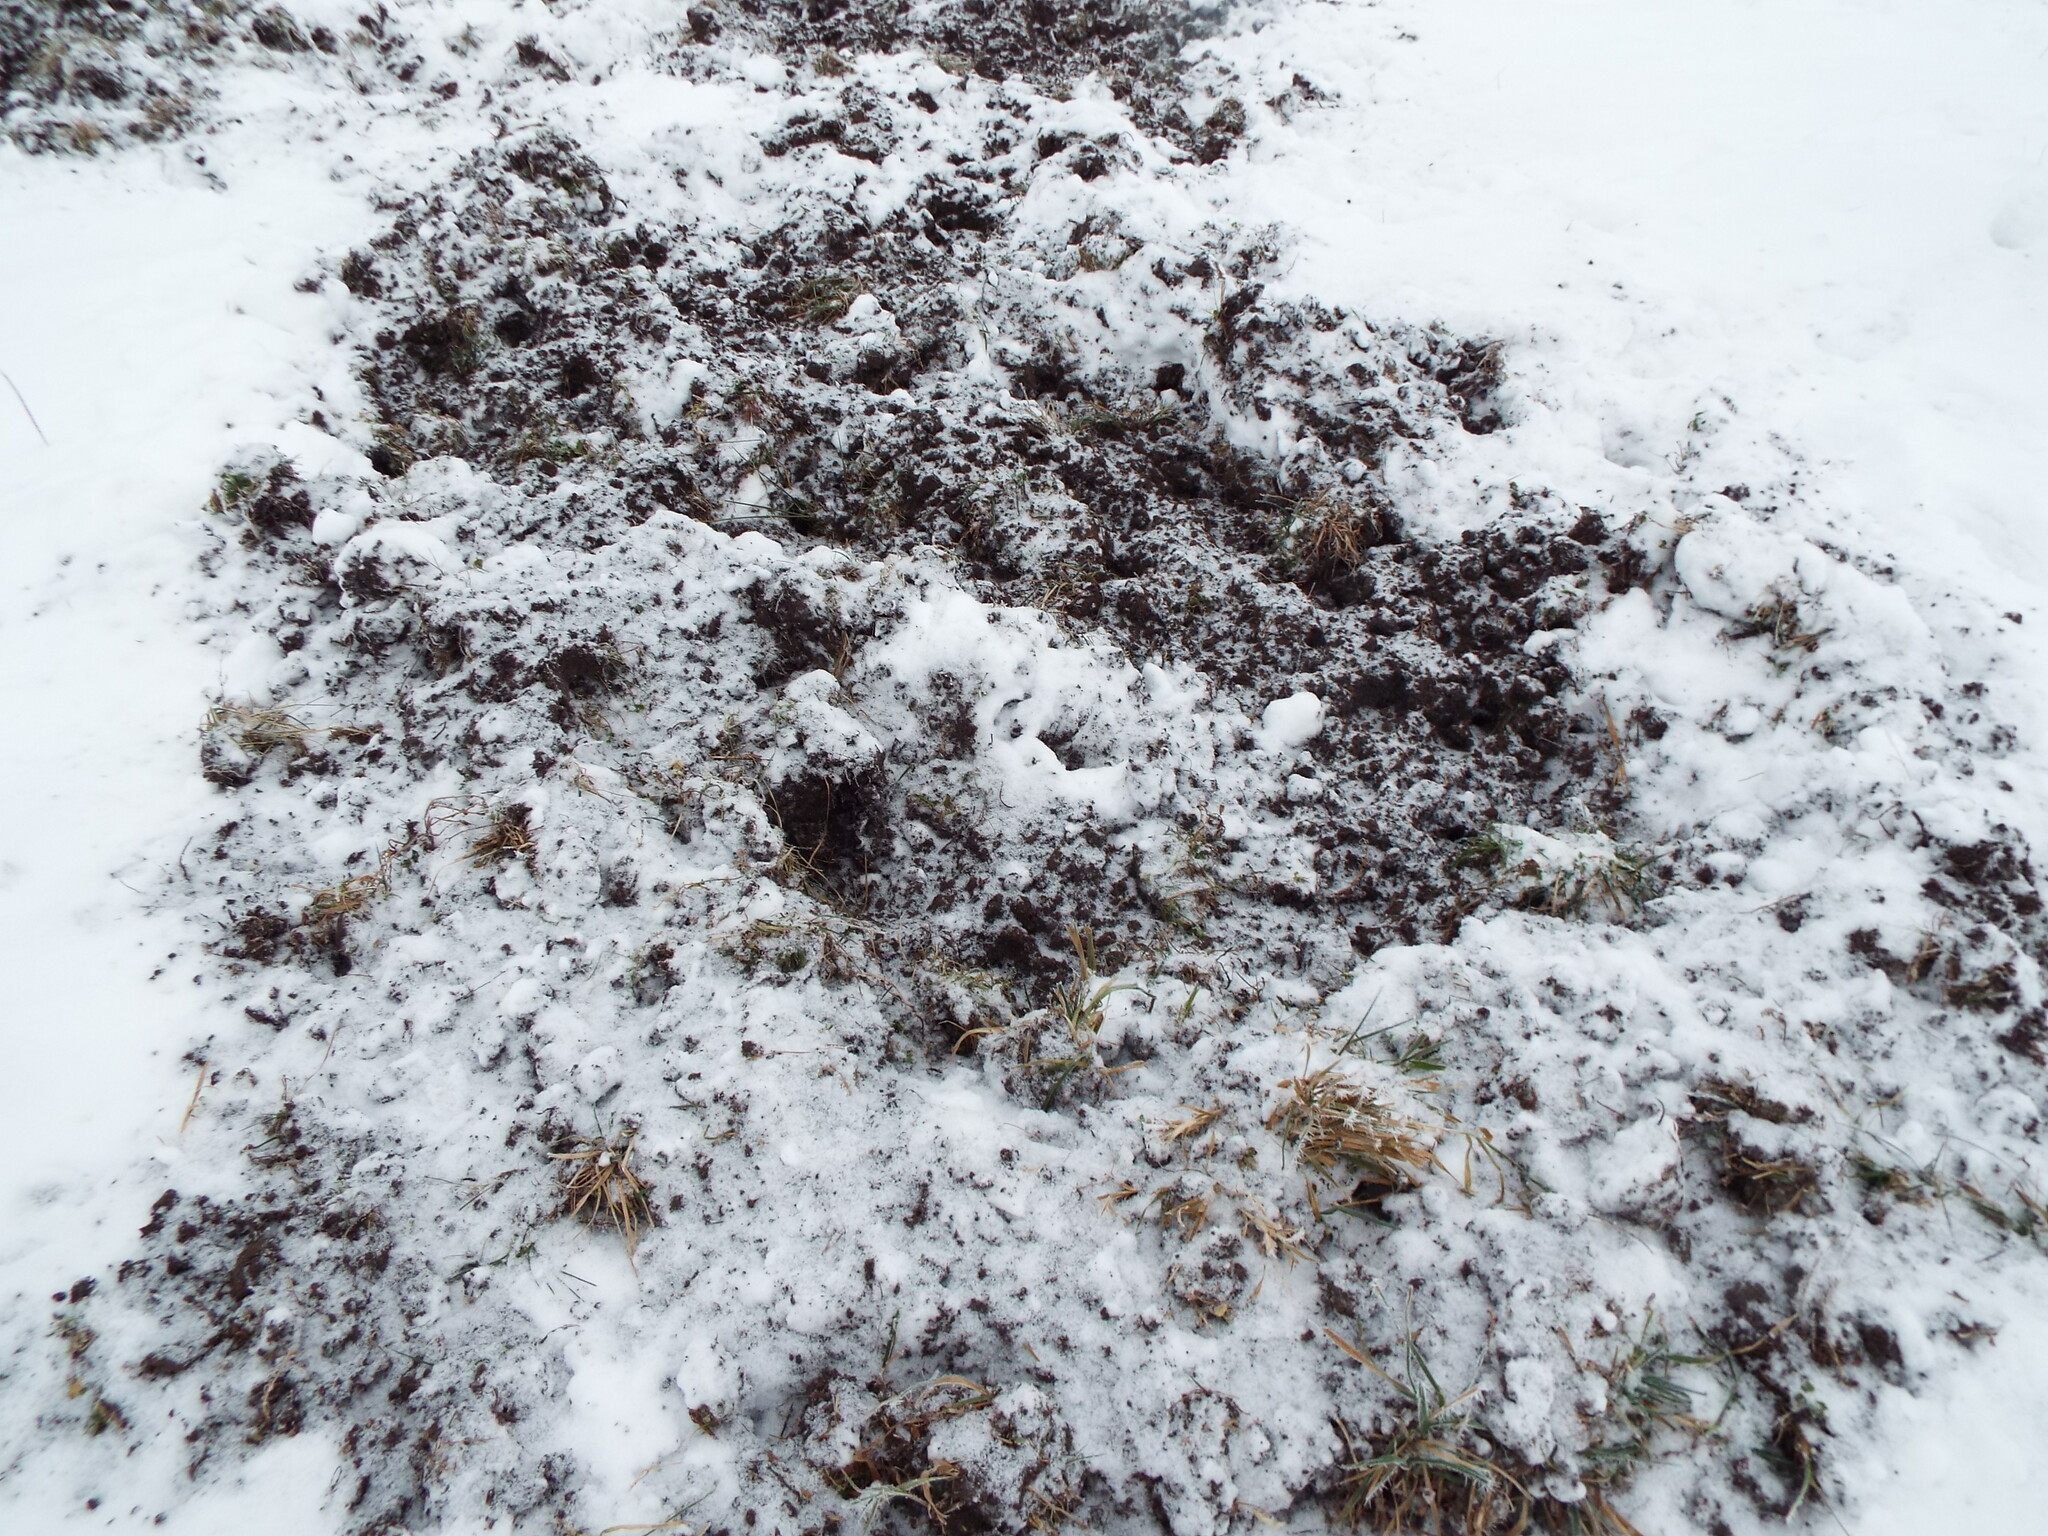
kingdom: Animalia
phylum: Chordata
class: Mammalia
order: Artiodactyla
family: Suidae
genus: Sus
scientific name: Sus scrofa
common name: Wild boar
